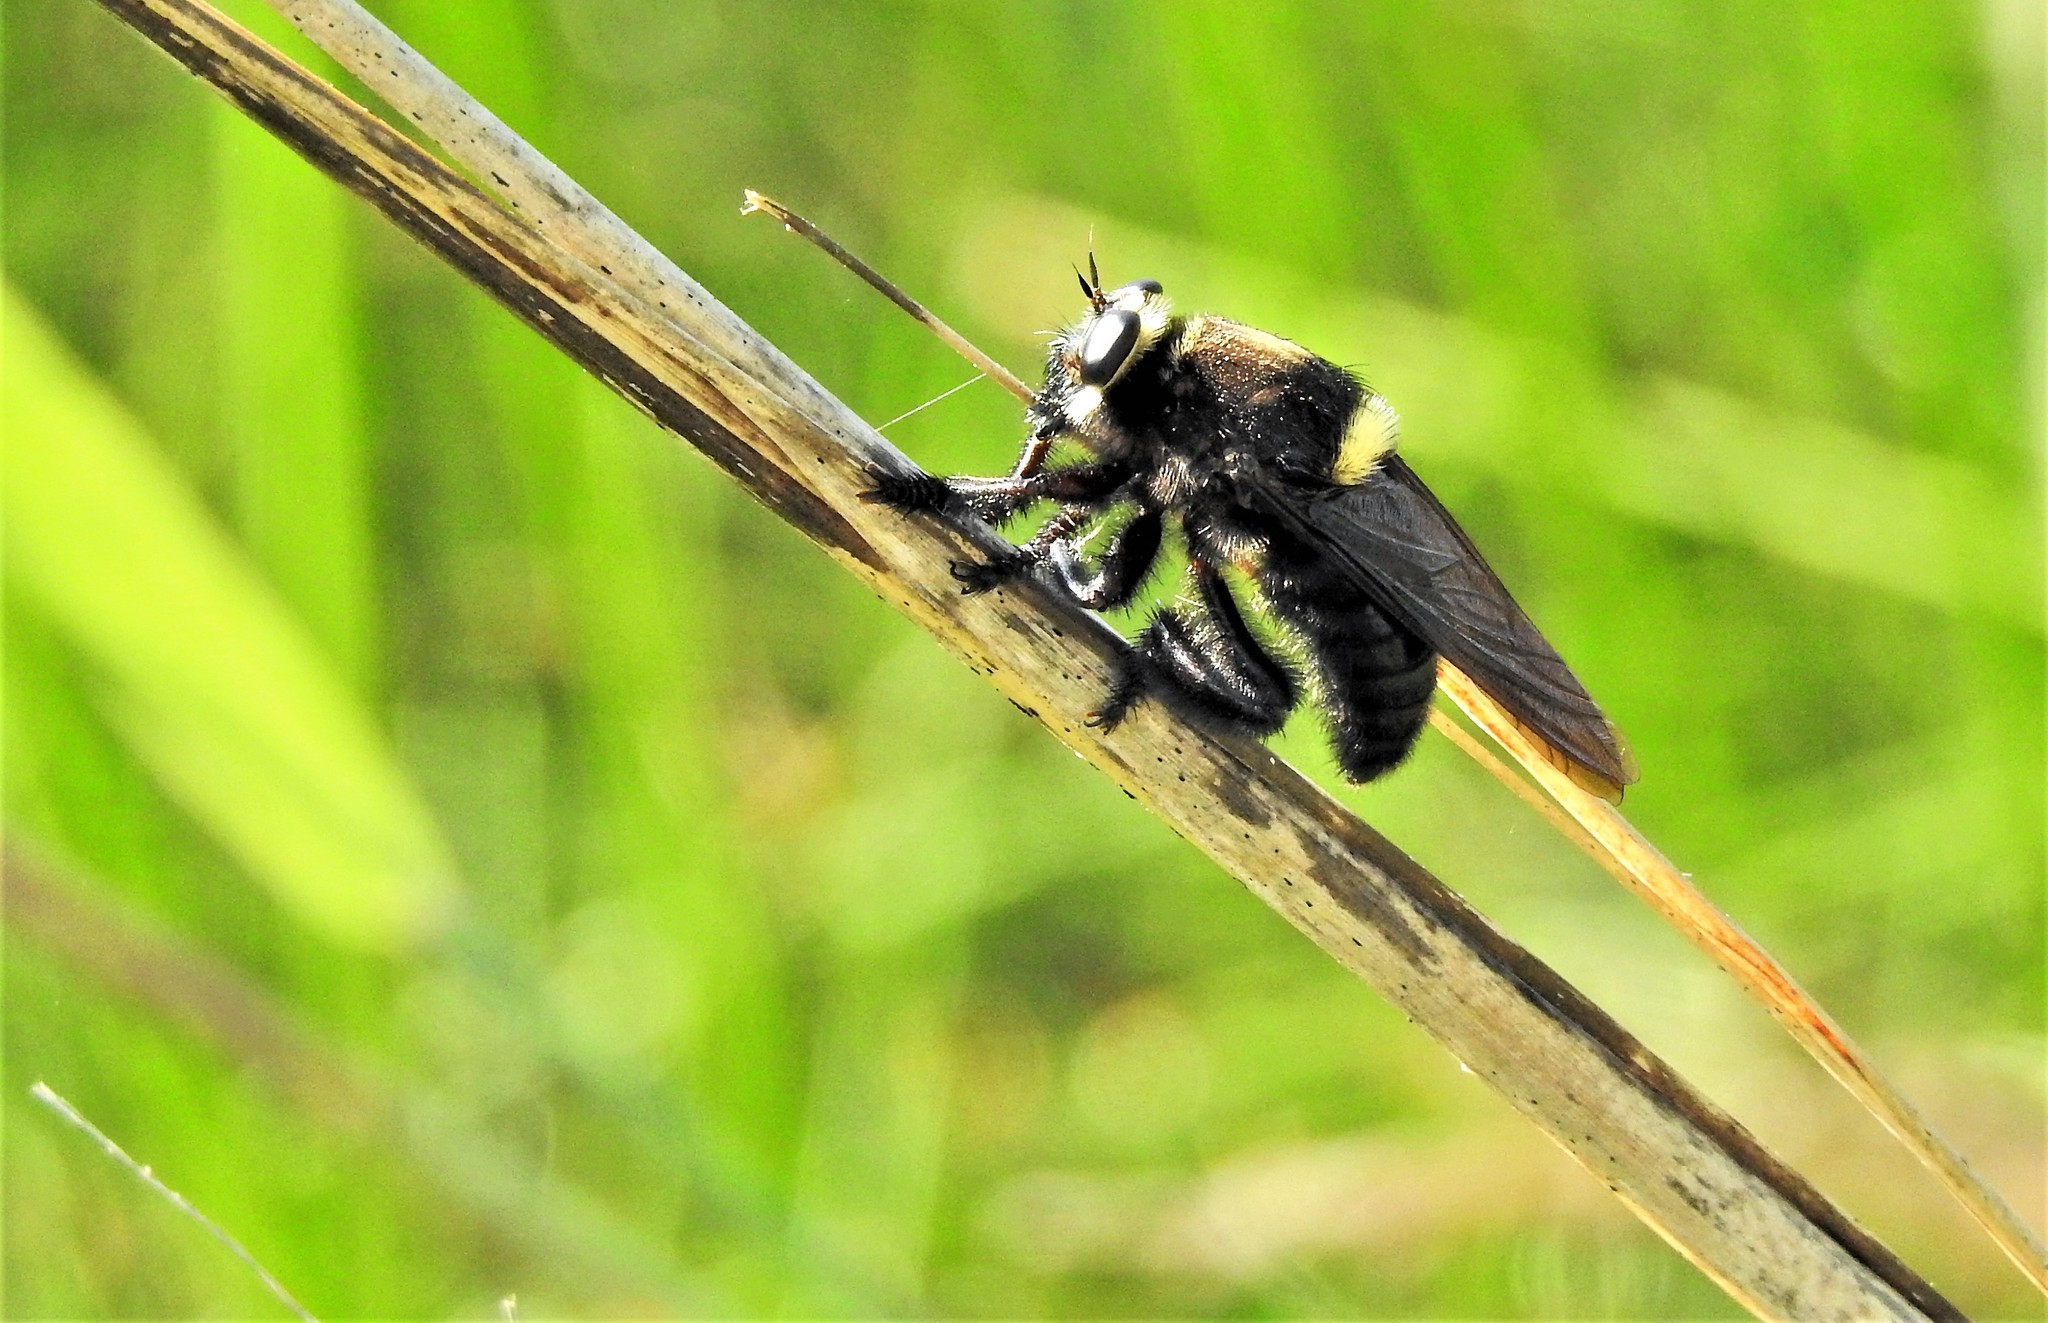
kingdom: Animalia
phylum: Arthropoda
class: Insecta
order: Diptera
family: Asilidae
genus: Mallophora
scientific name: Mallophora leschenaultii
